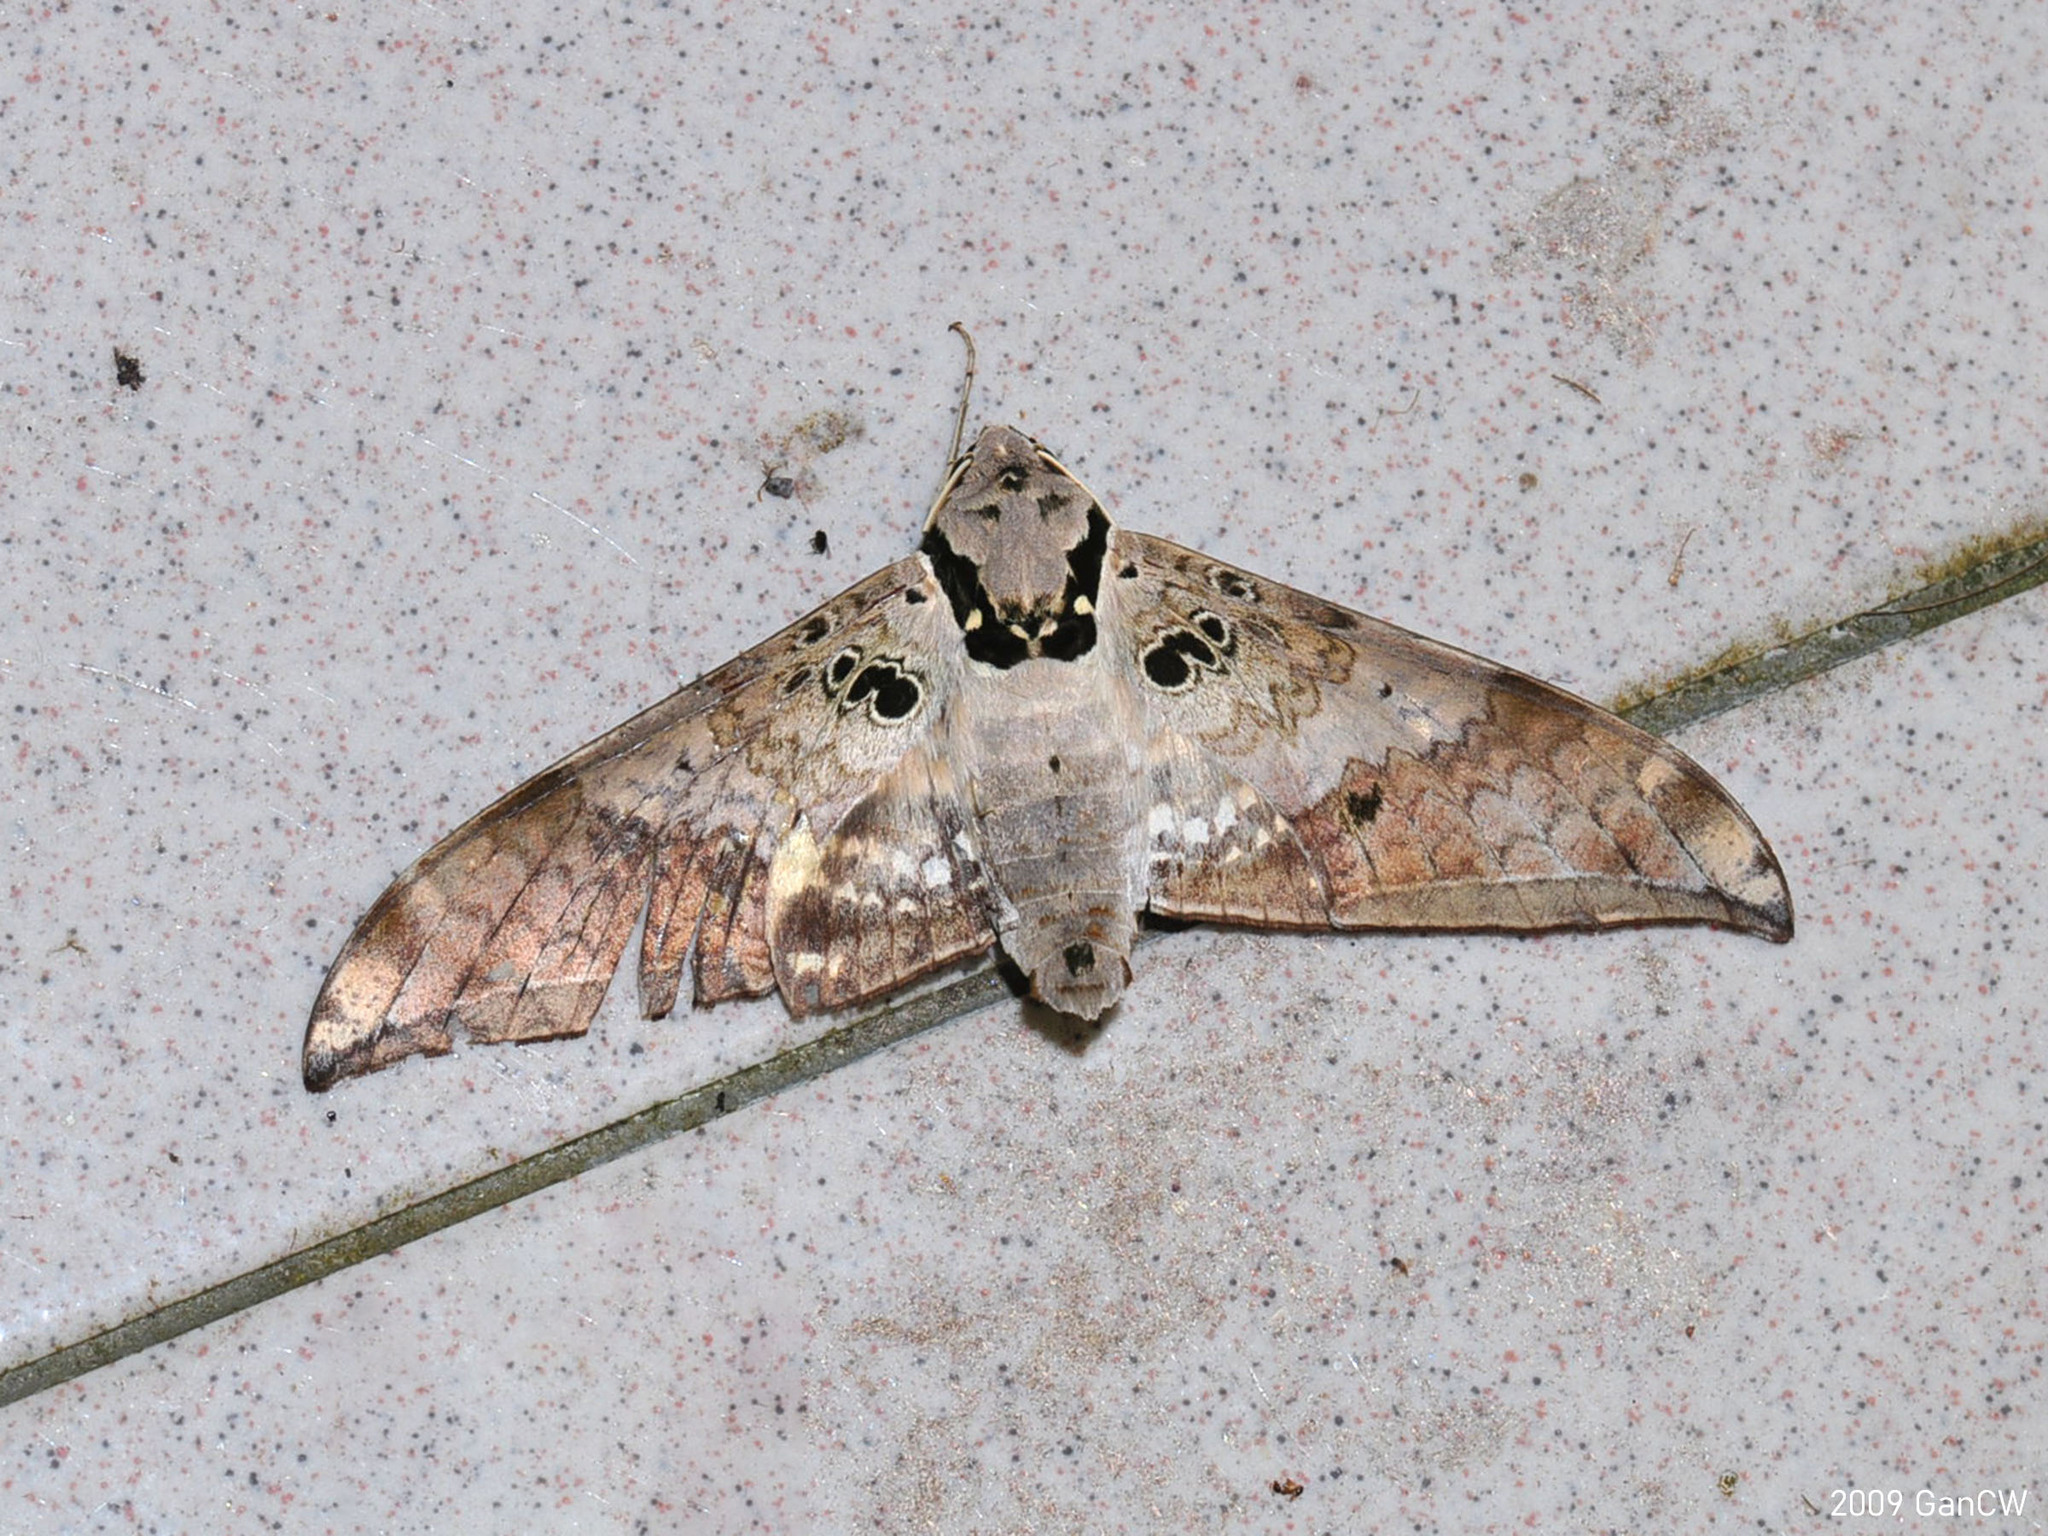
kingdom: Animalia
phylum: Arthropoda
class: Insecta
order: Lepidoptera
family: Sphingidae
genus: Ambulyx
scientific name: Ambulyx canescens
